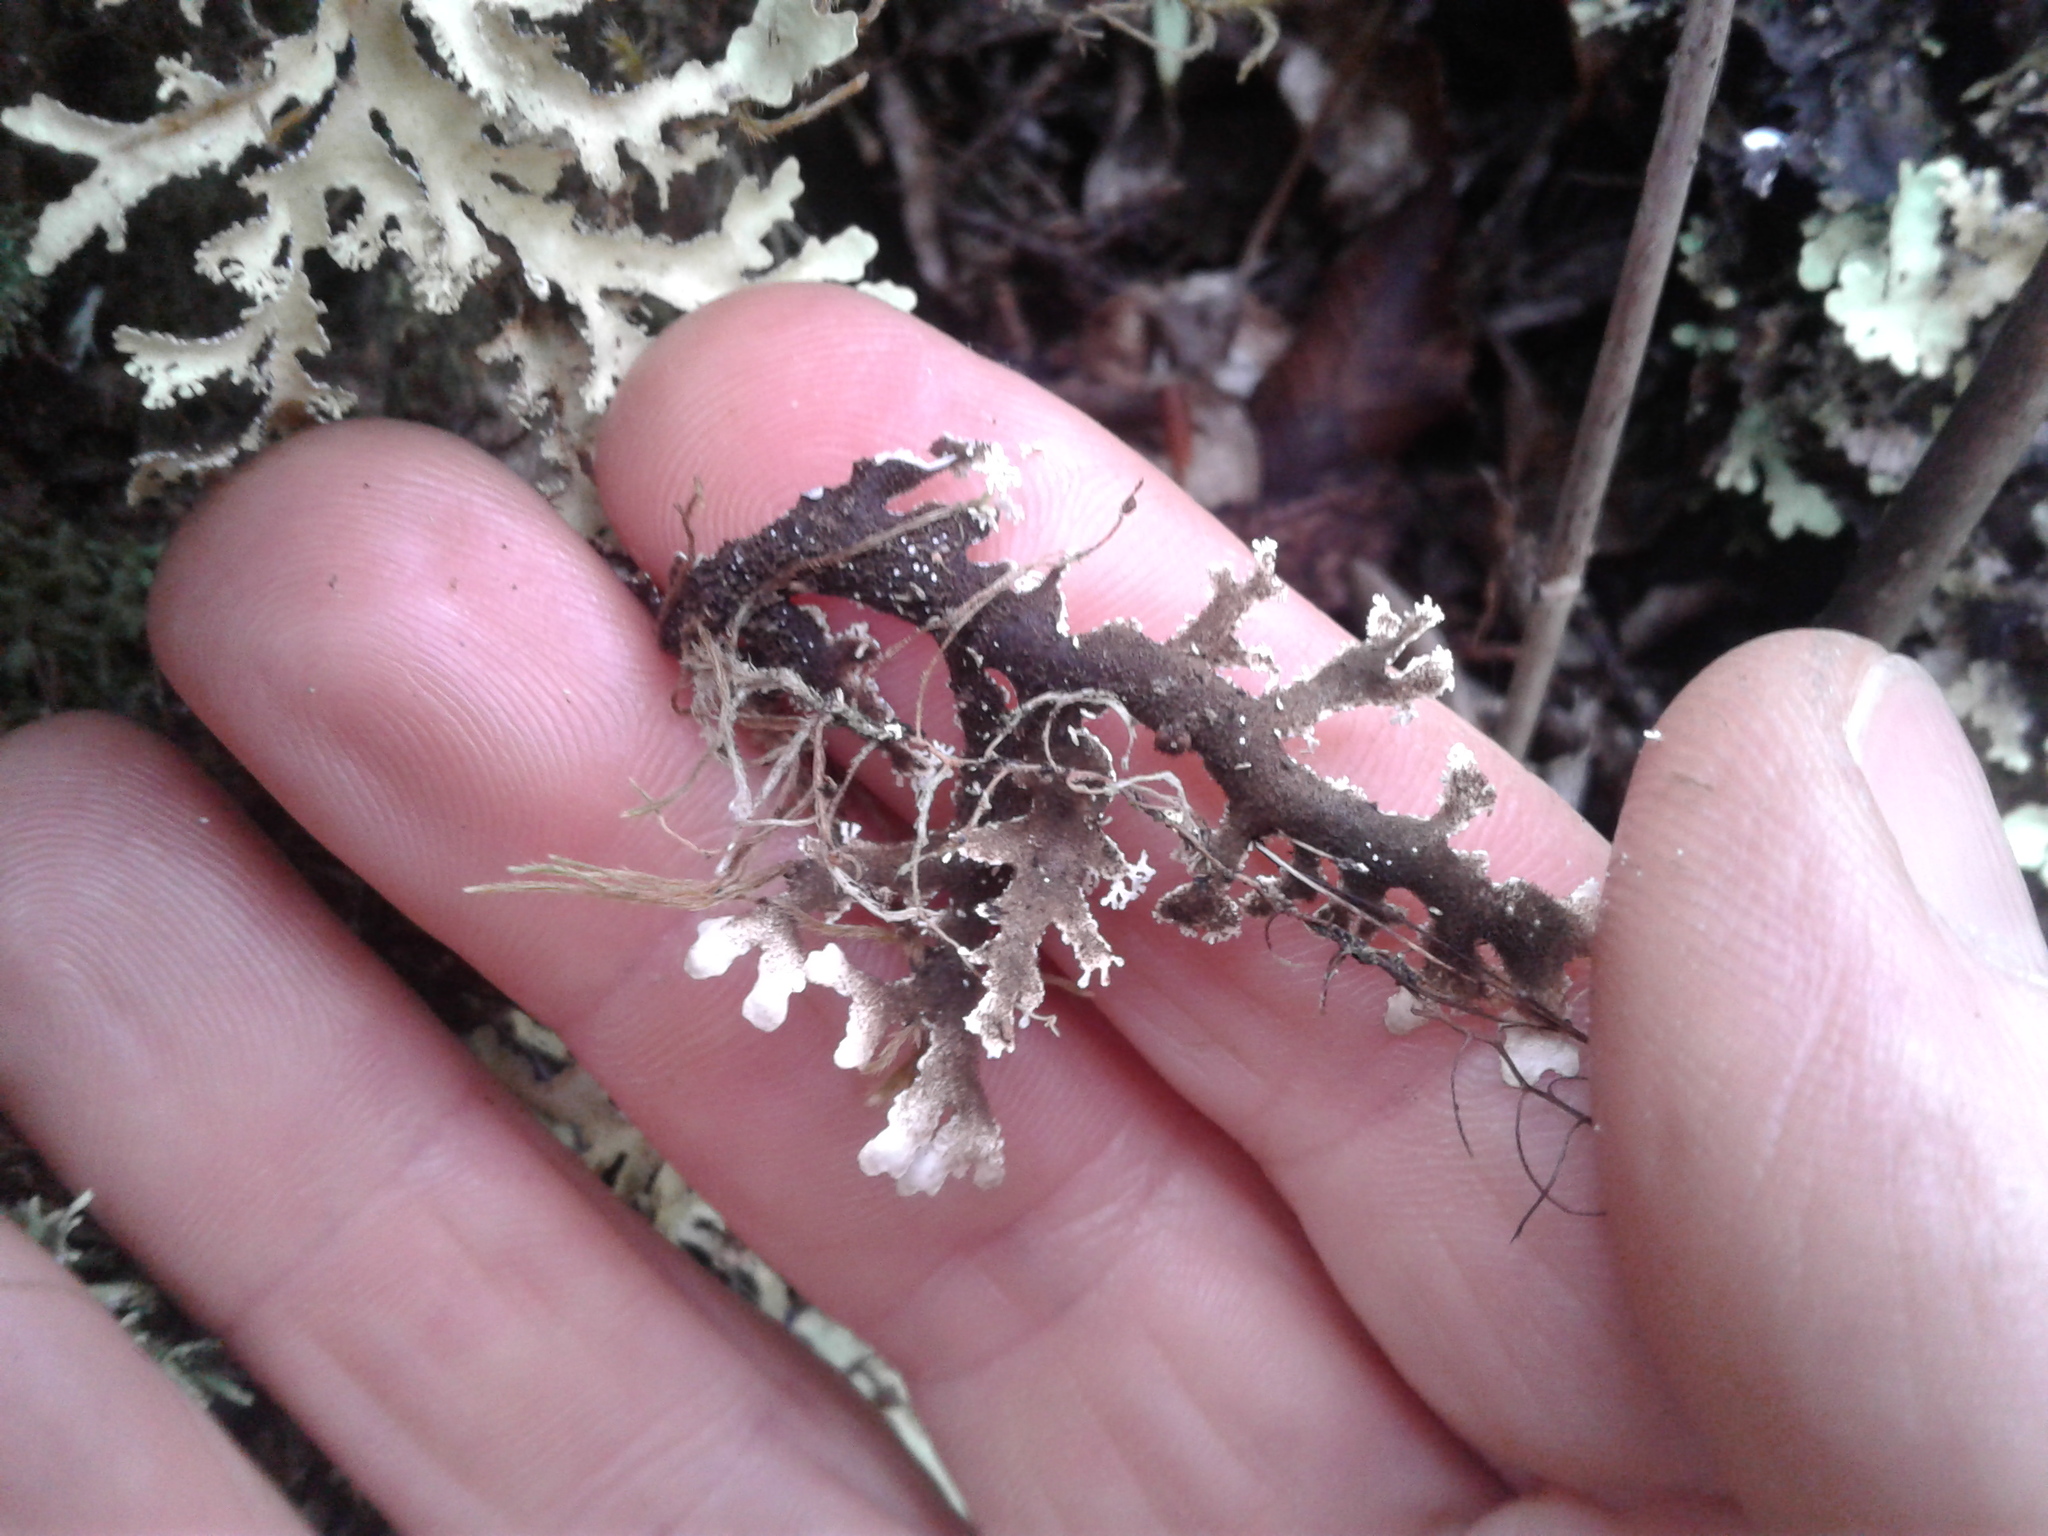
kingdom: Fungi
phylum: Ascomycota
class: Lecanoromycetes
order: Peltigerales
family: Lobariaceae
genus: Pseudocyphellaria
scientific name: Pseudocyphellaria homeophylla
